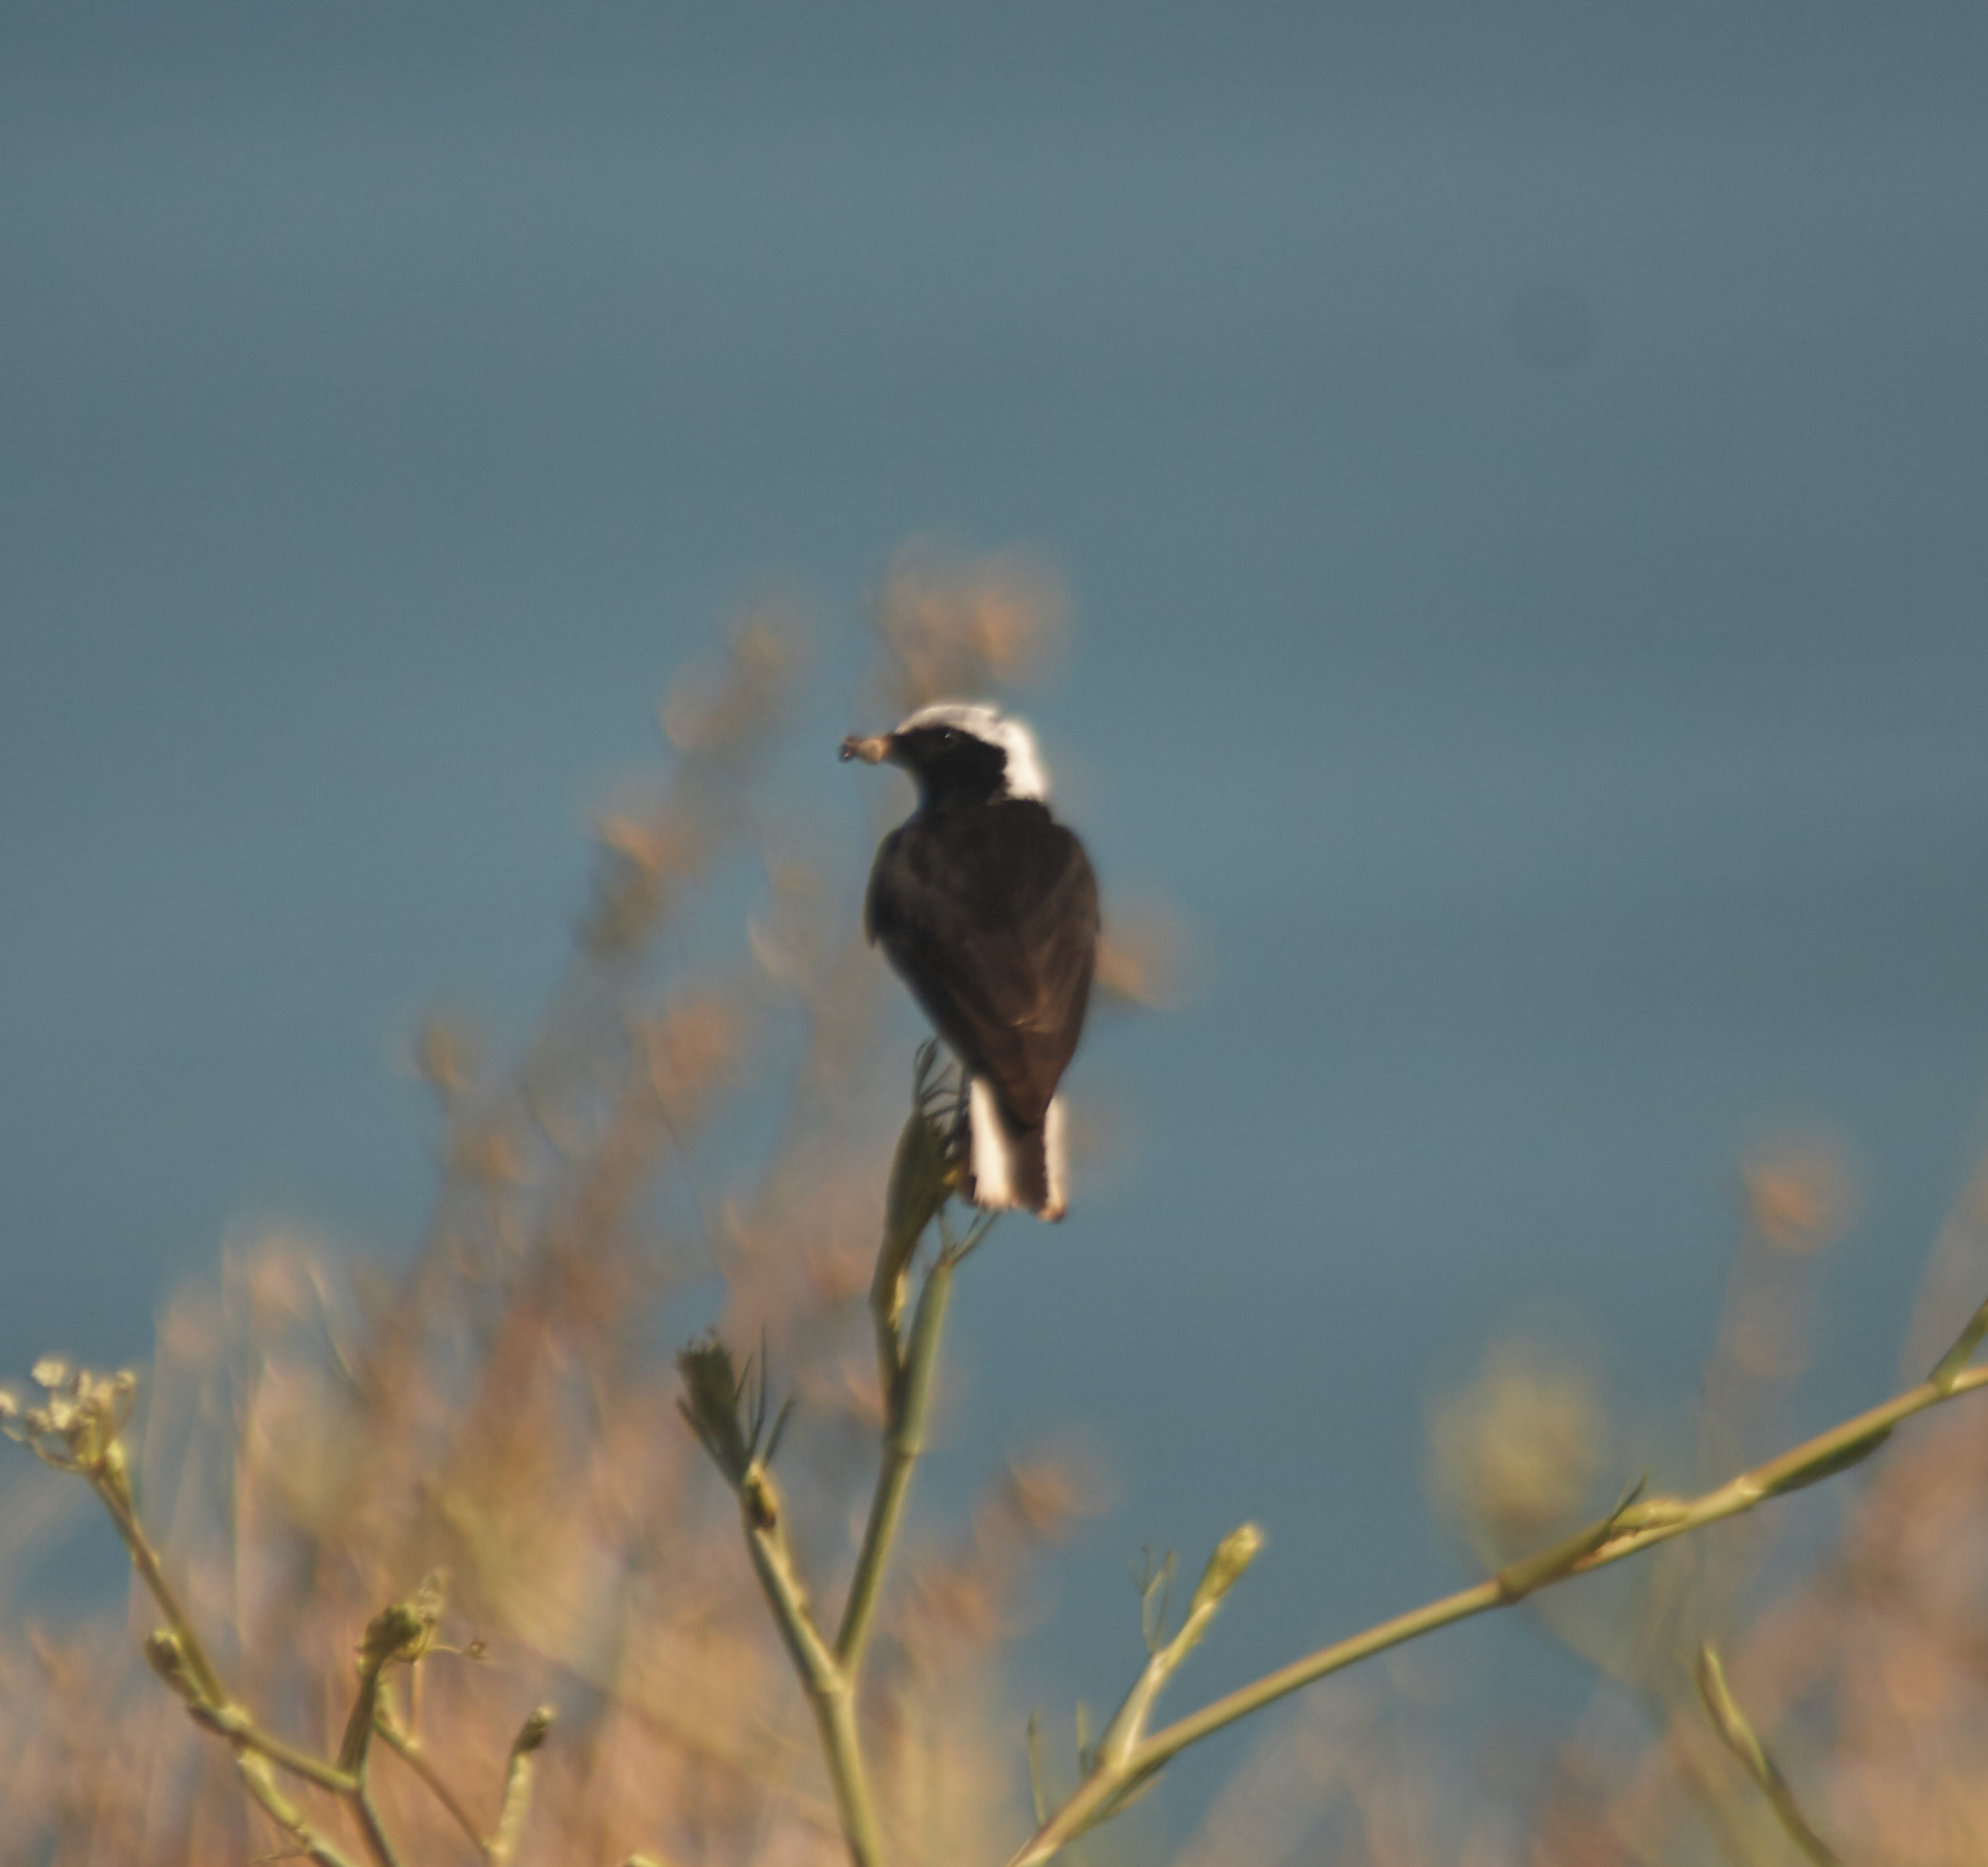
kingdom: Animalia
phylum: Chordata
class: Aves
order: Passeriformes
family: Muscicapidae
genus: Oenanthe
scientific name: Oenanthe pleschanka
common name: Pied wheatear
